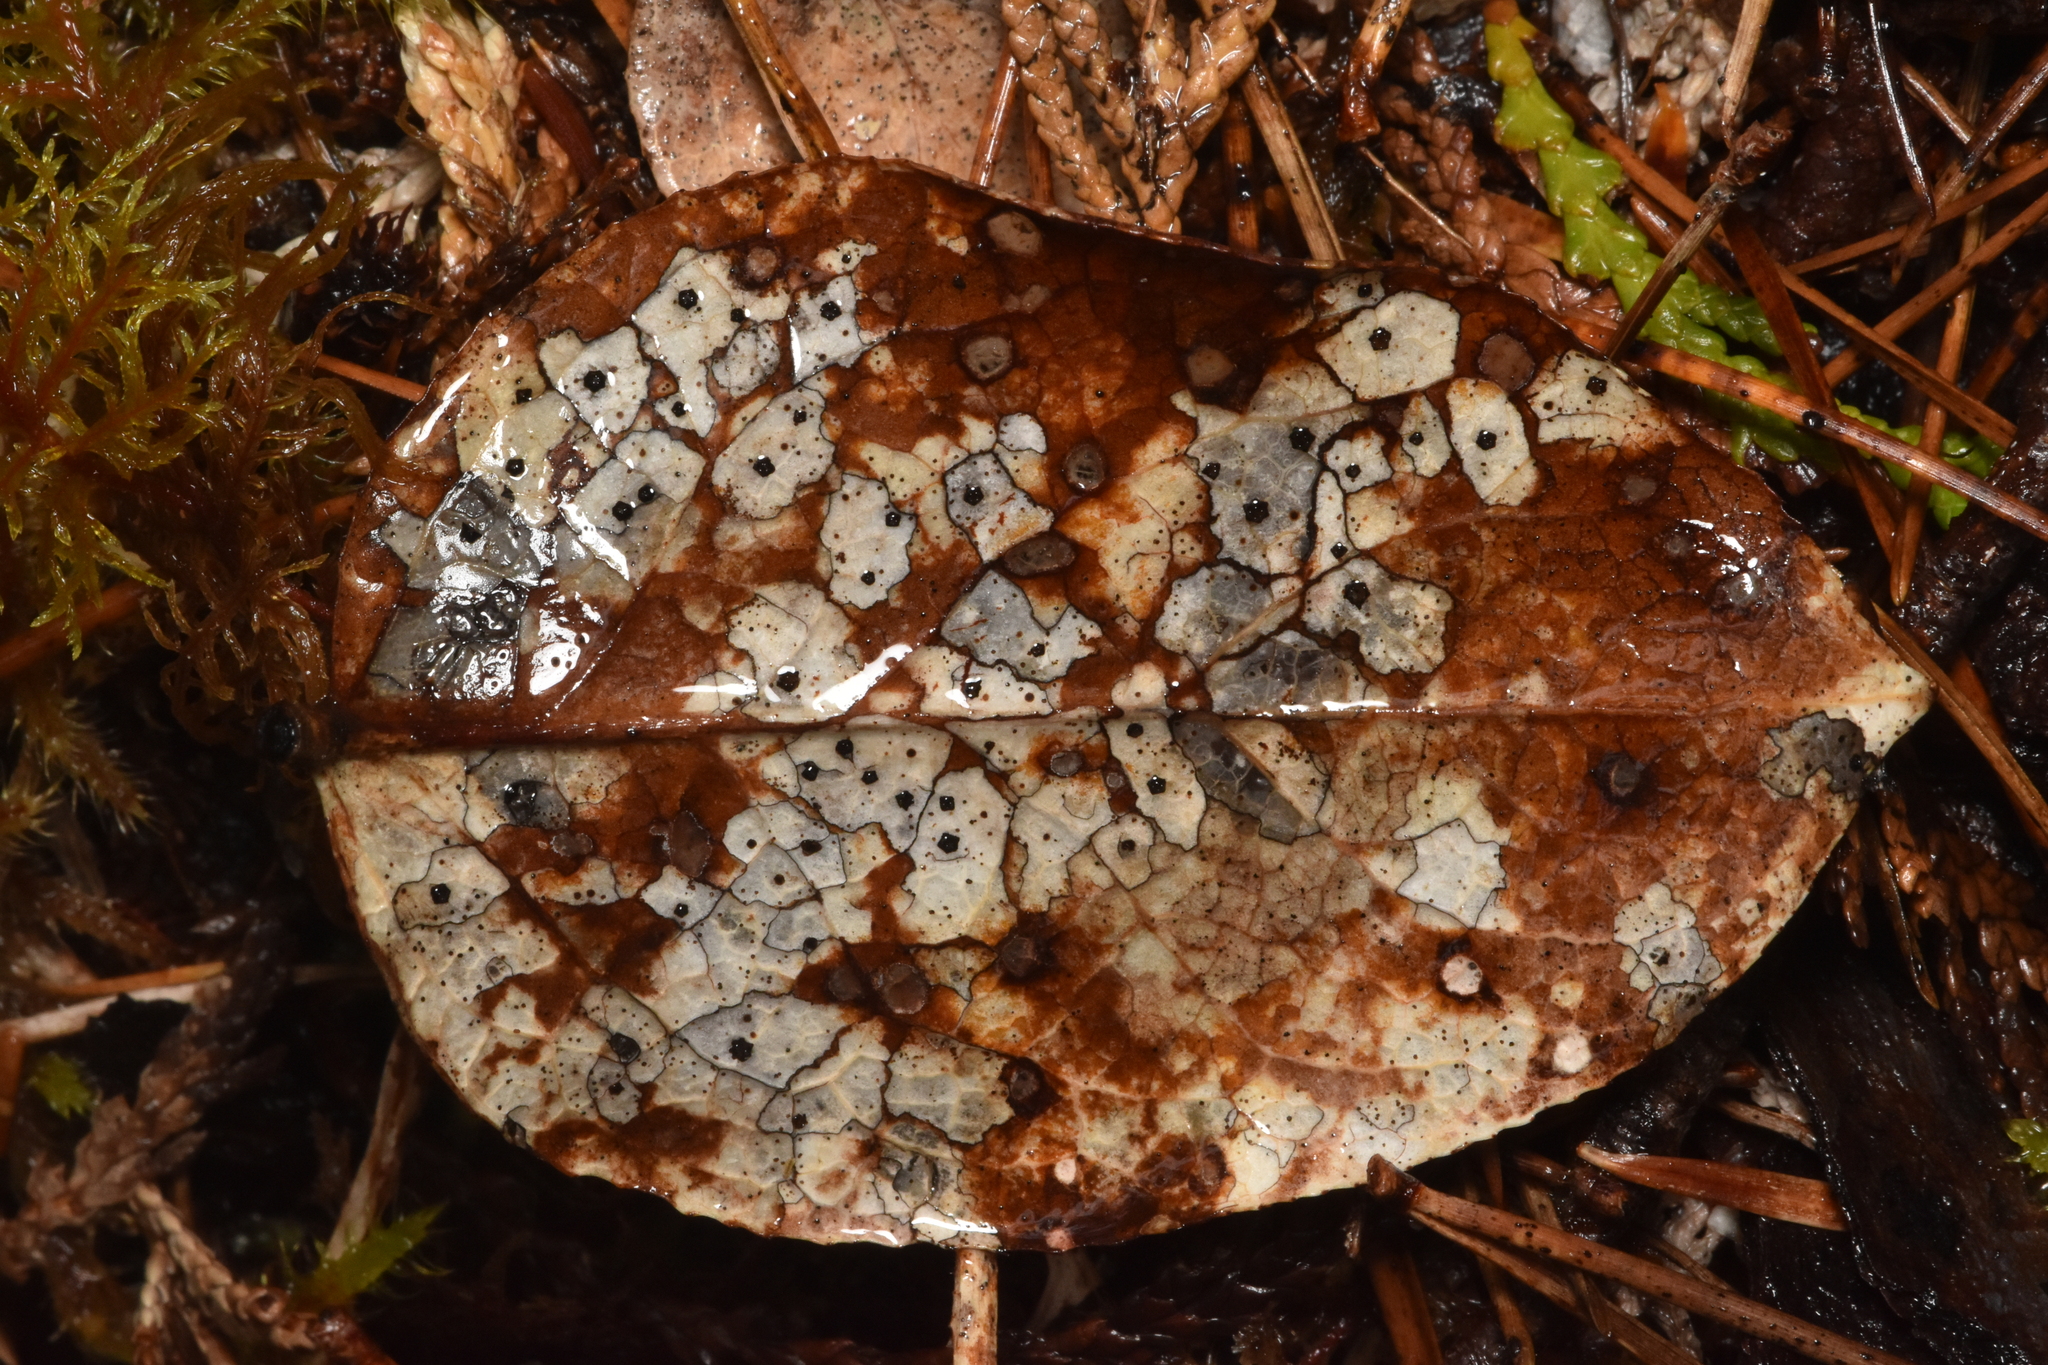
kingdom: Fungi
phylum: Ascomycota
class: Leotiomycetes
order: Rhytismatales
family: Rhytismataceae
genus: Coccomyces
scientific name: Coccomyces dentatus
